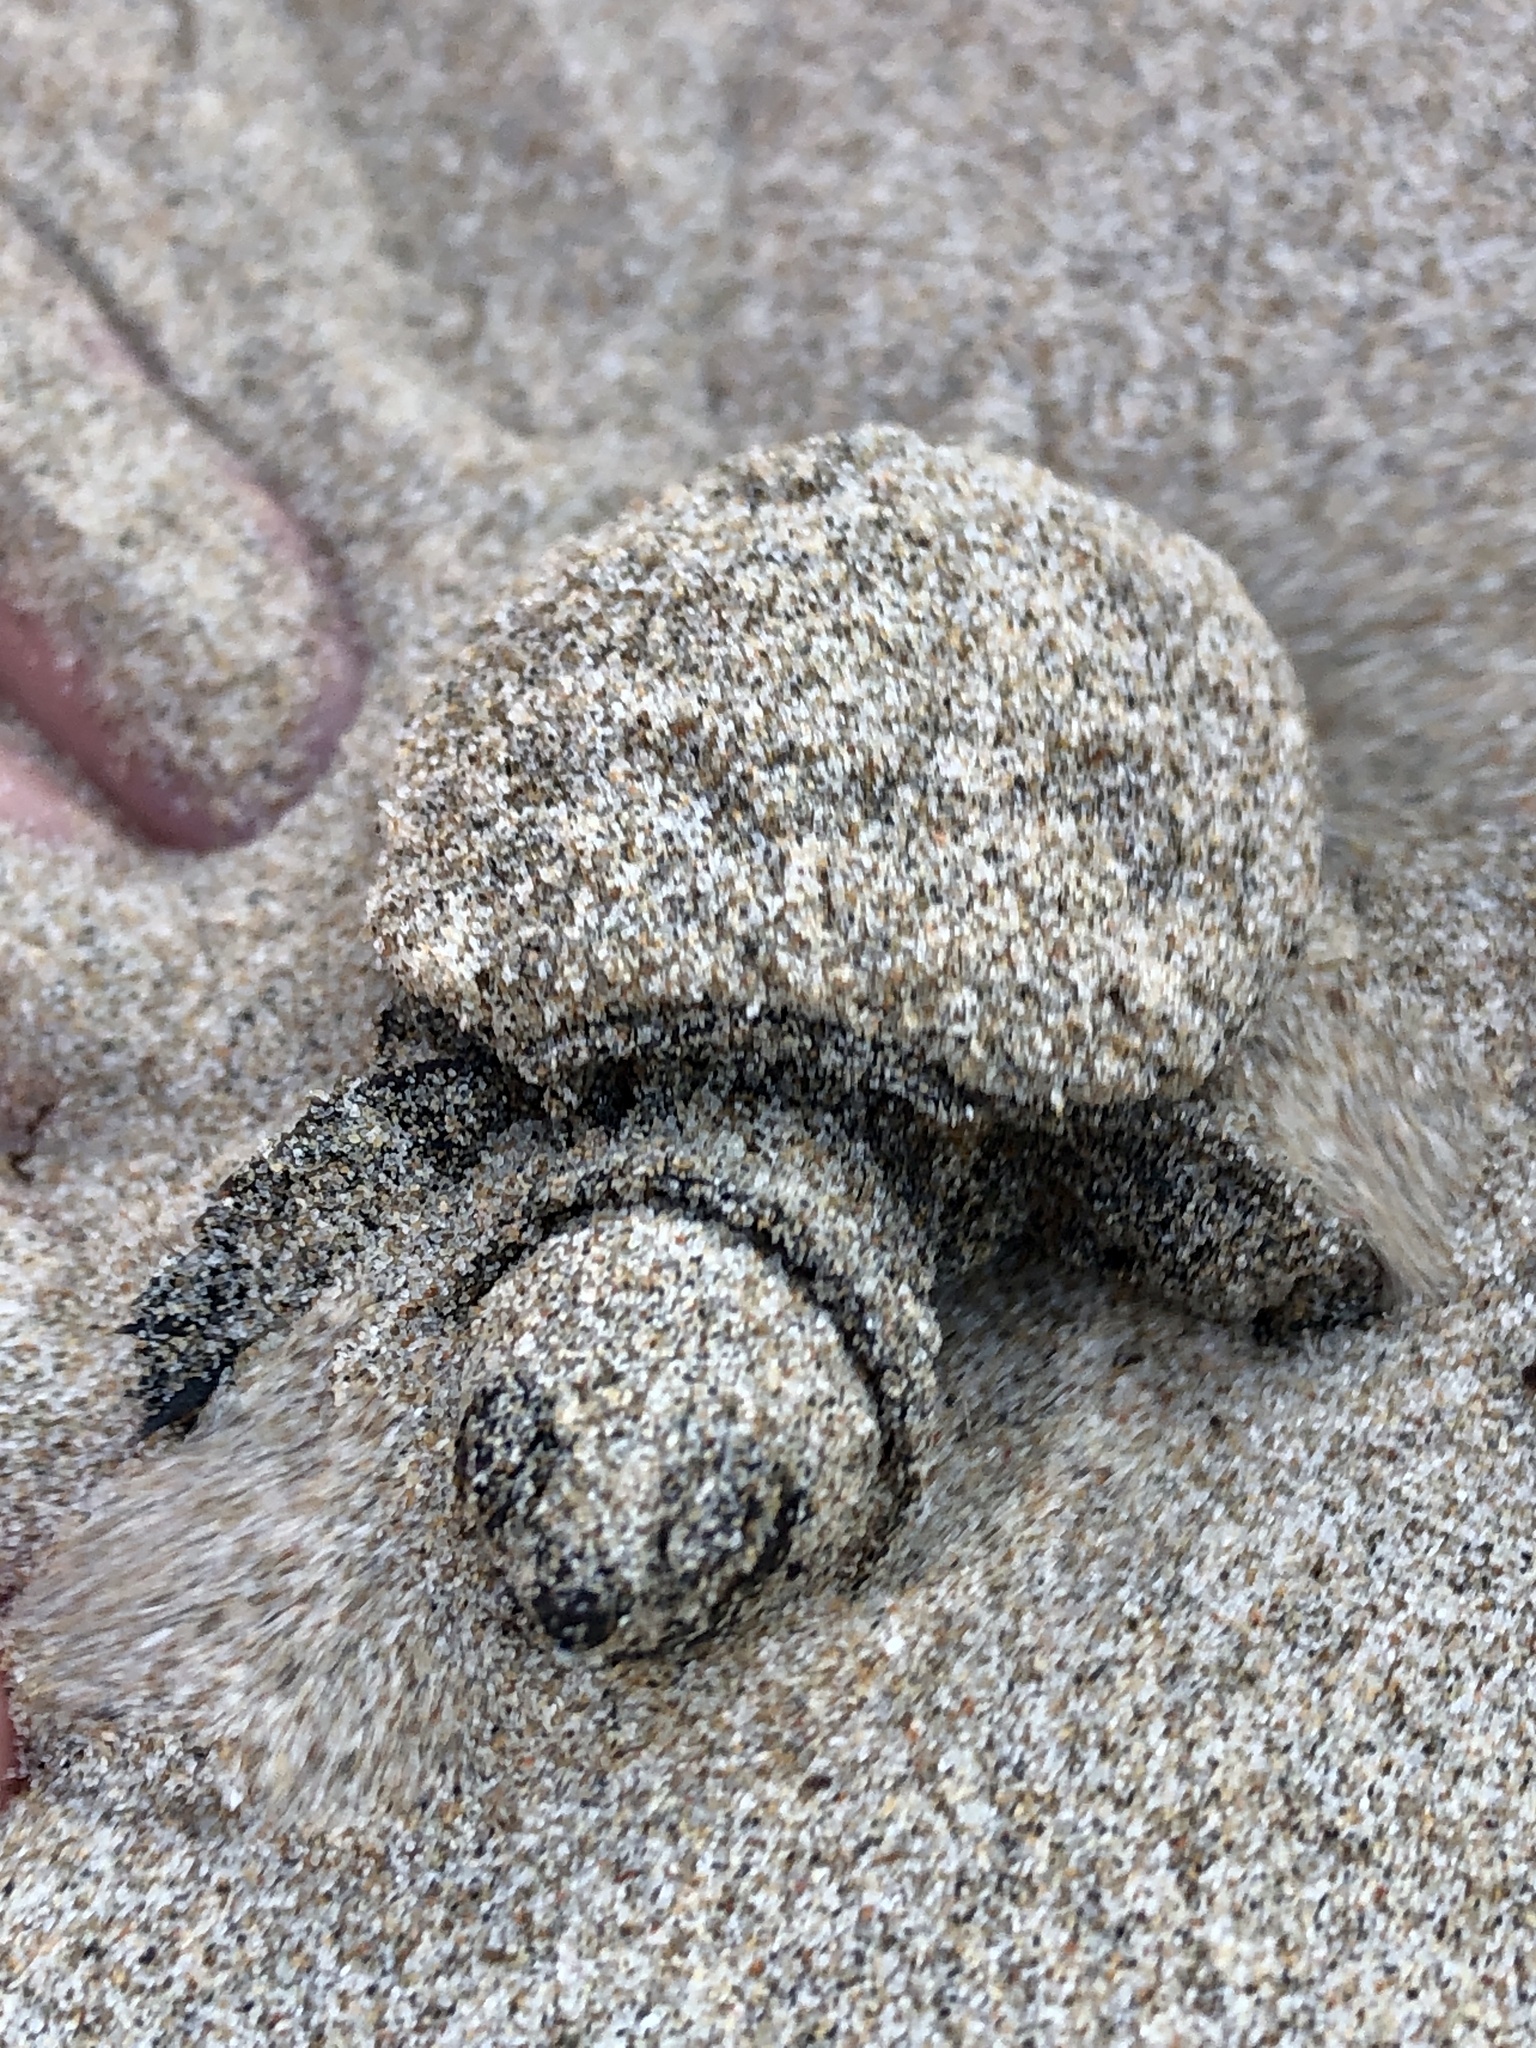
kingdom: Animalia
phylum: Chordata
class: Testudines
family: Chelydridae
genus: Chelydra
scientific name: Chelydra serpentina
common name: Common snapping turtle
